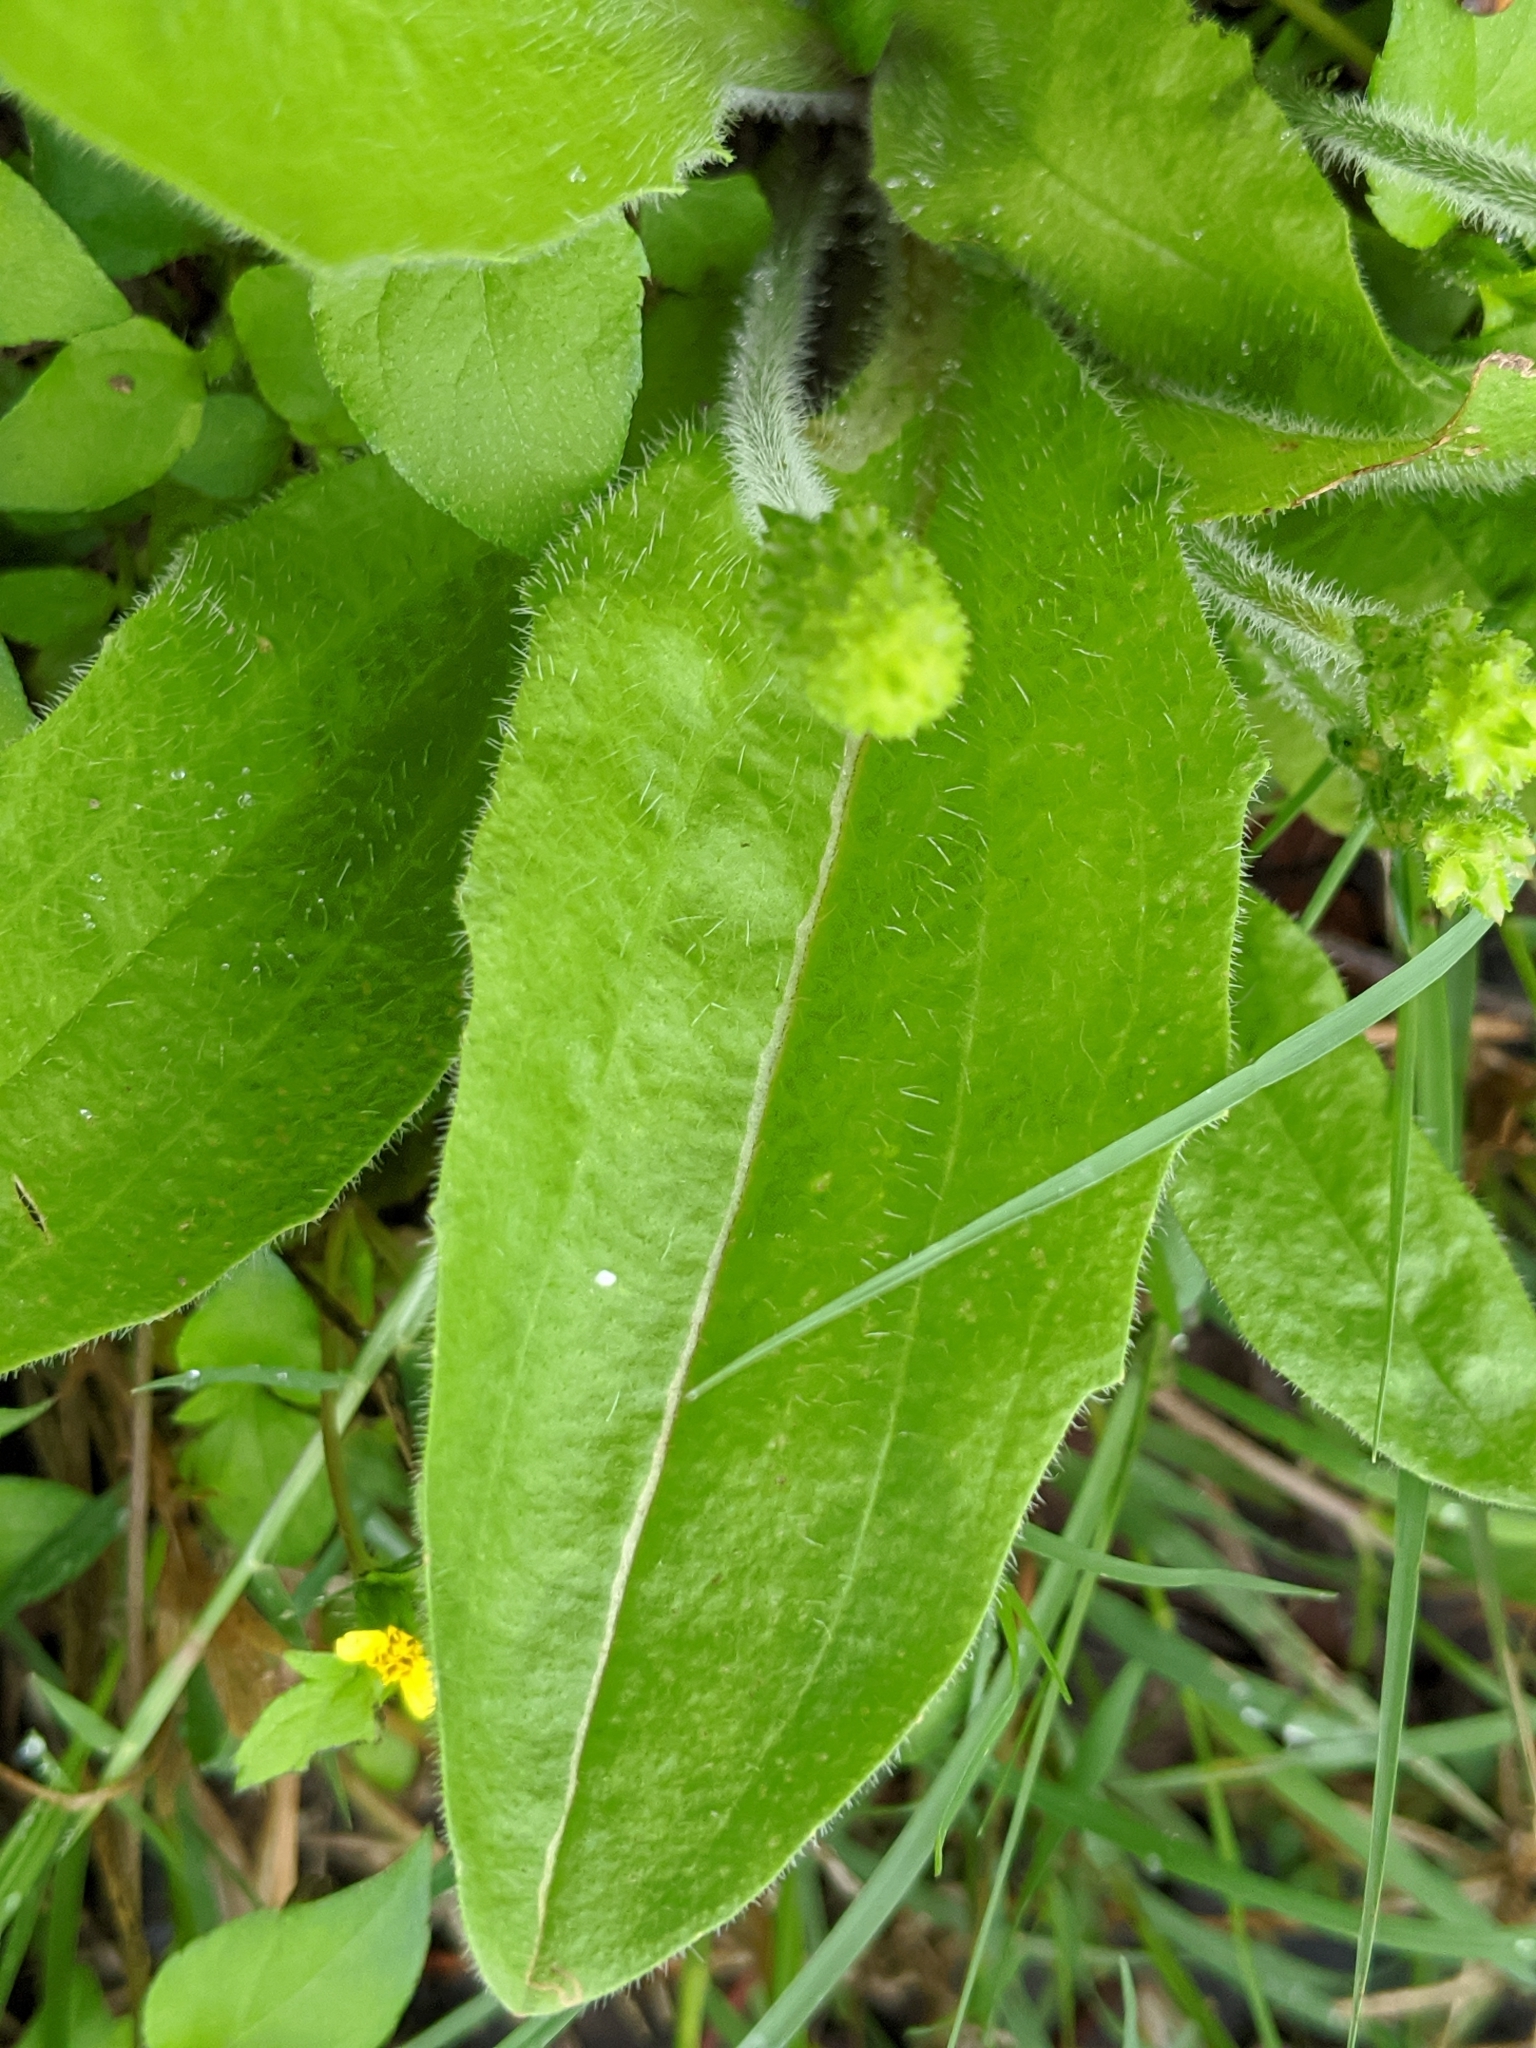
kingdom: Plantae
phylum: Tracheophyta
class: Magnoliopsida
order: Lamiales
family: Plantaginaceae
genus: Plantago
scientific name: Plantago rhodosperma
